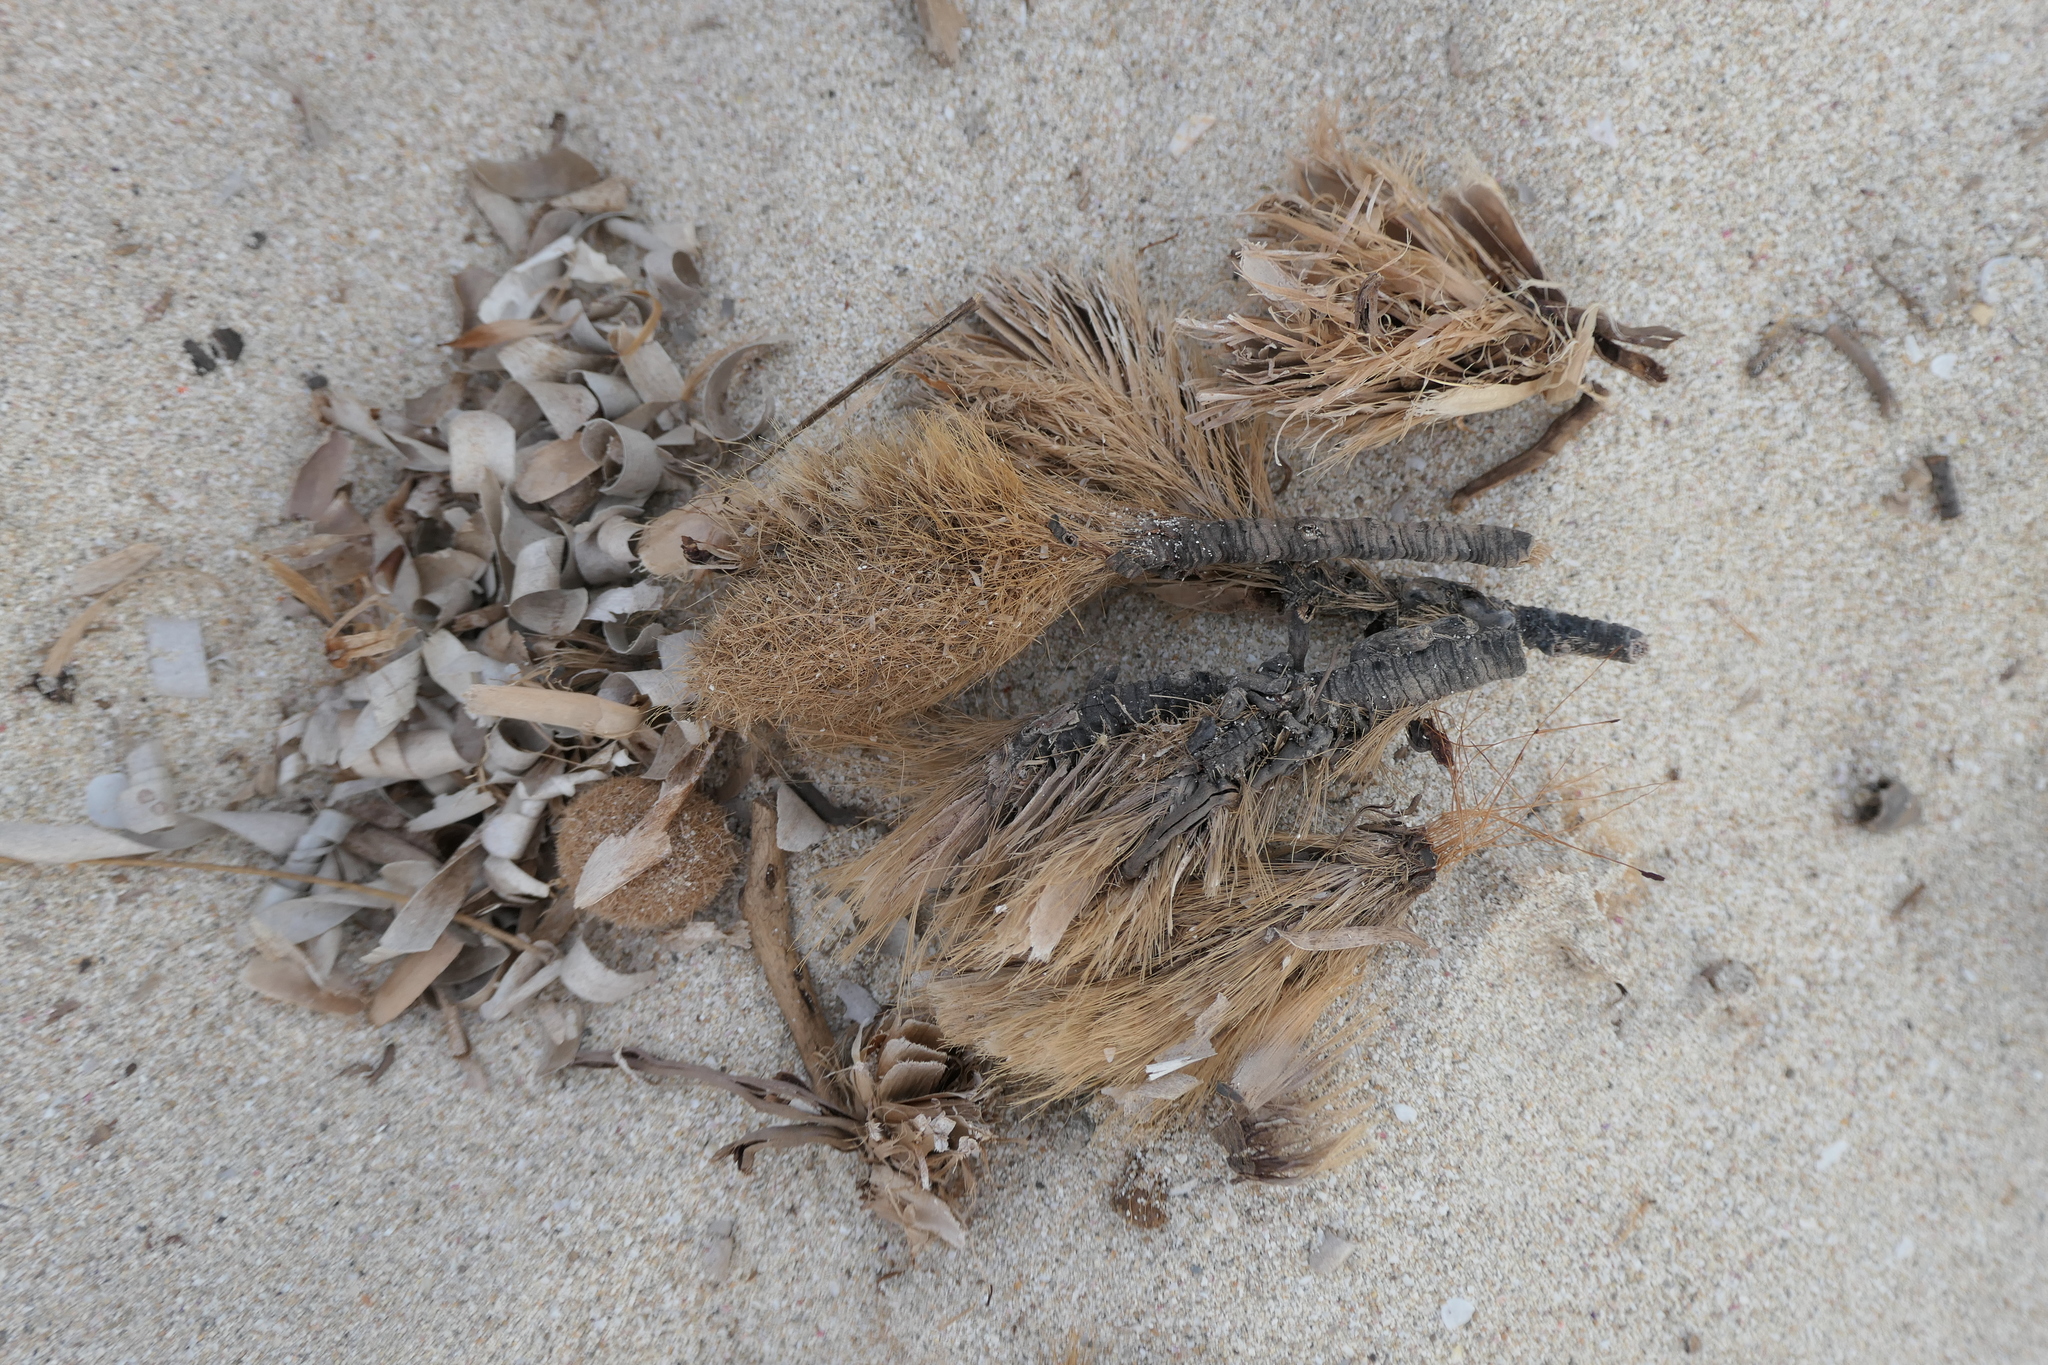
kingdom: Plantae
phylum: Tracheophyta
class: Liliopsida
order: Alismatales
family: Posidoniaceae
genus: Posidonia
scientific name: Posidonia oceanica
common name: Mediterranean tapeweed
